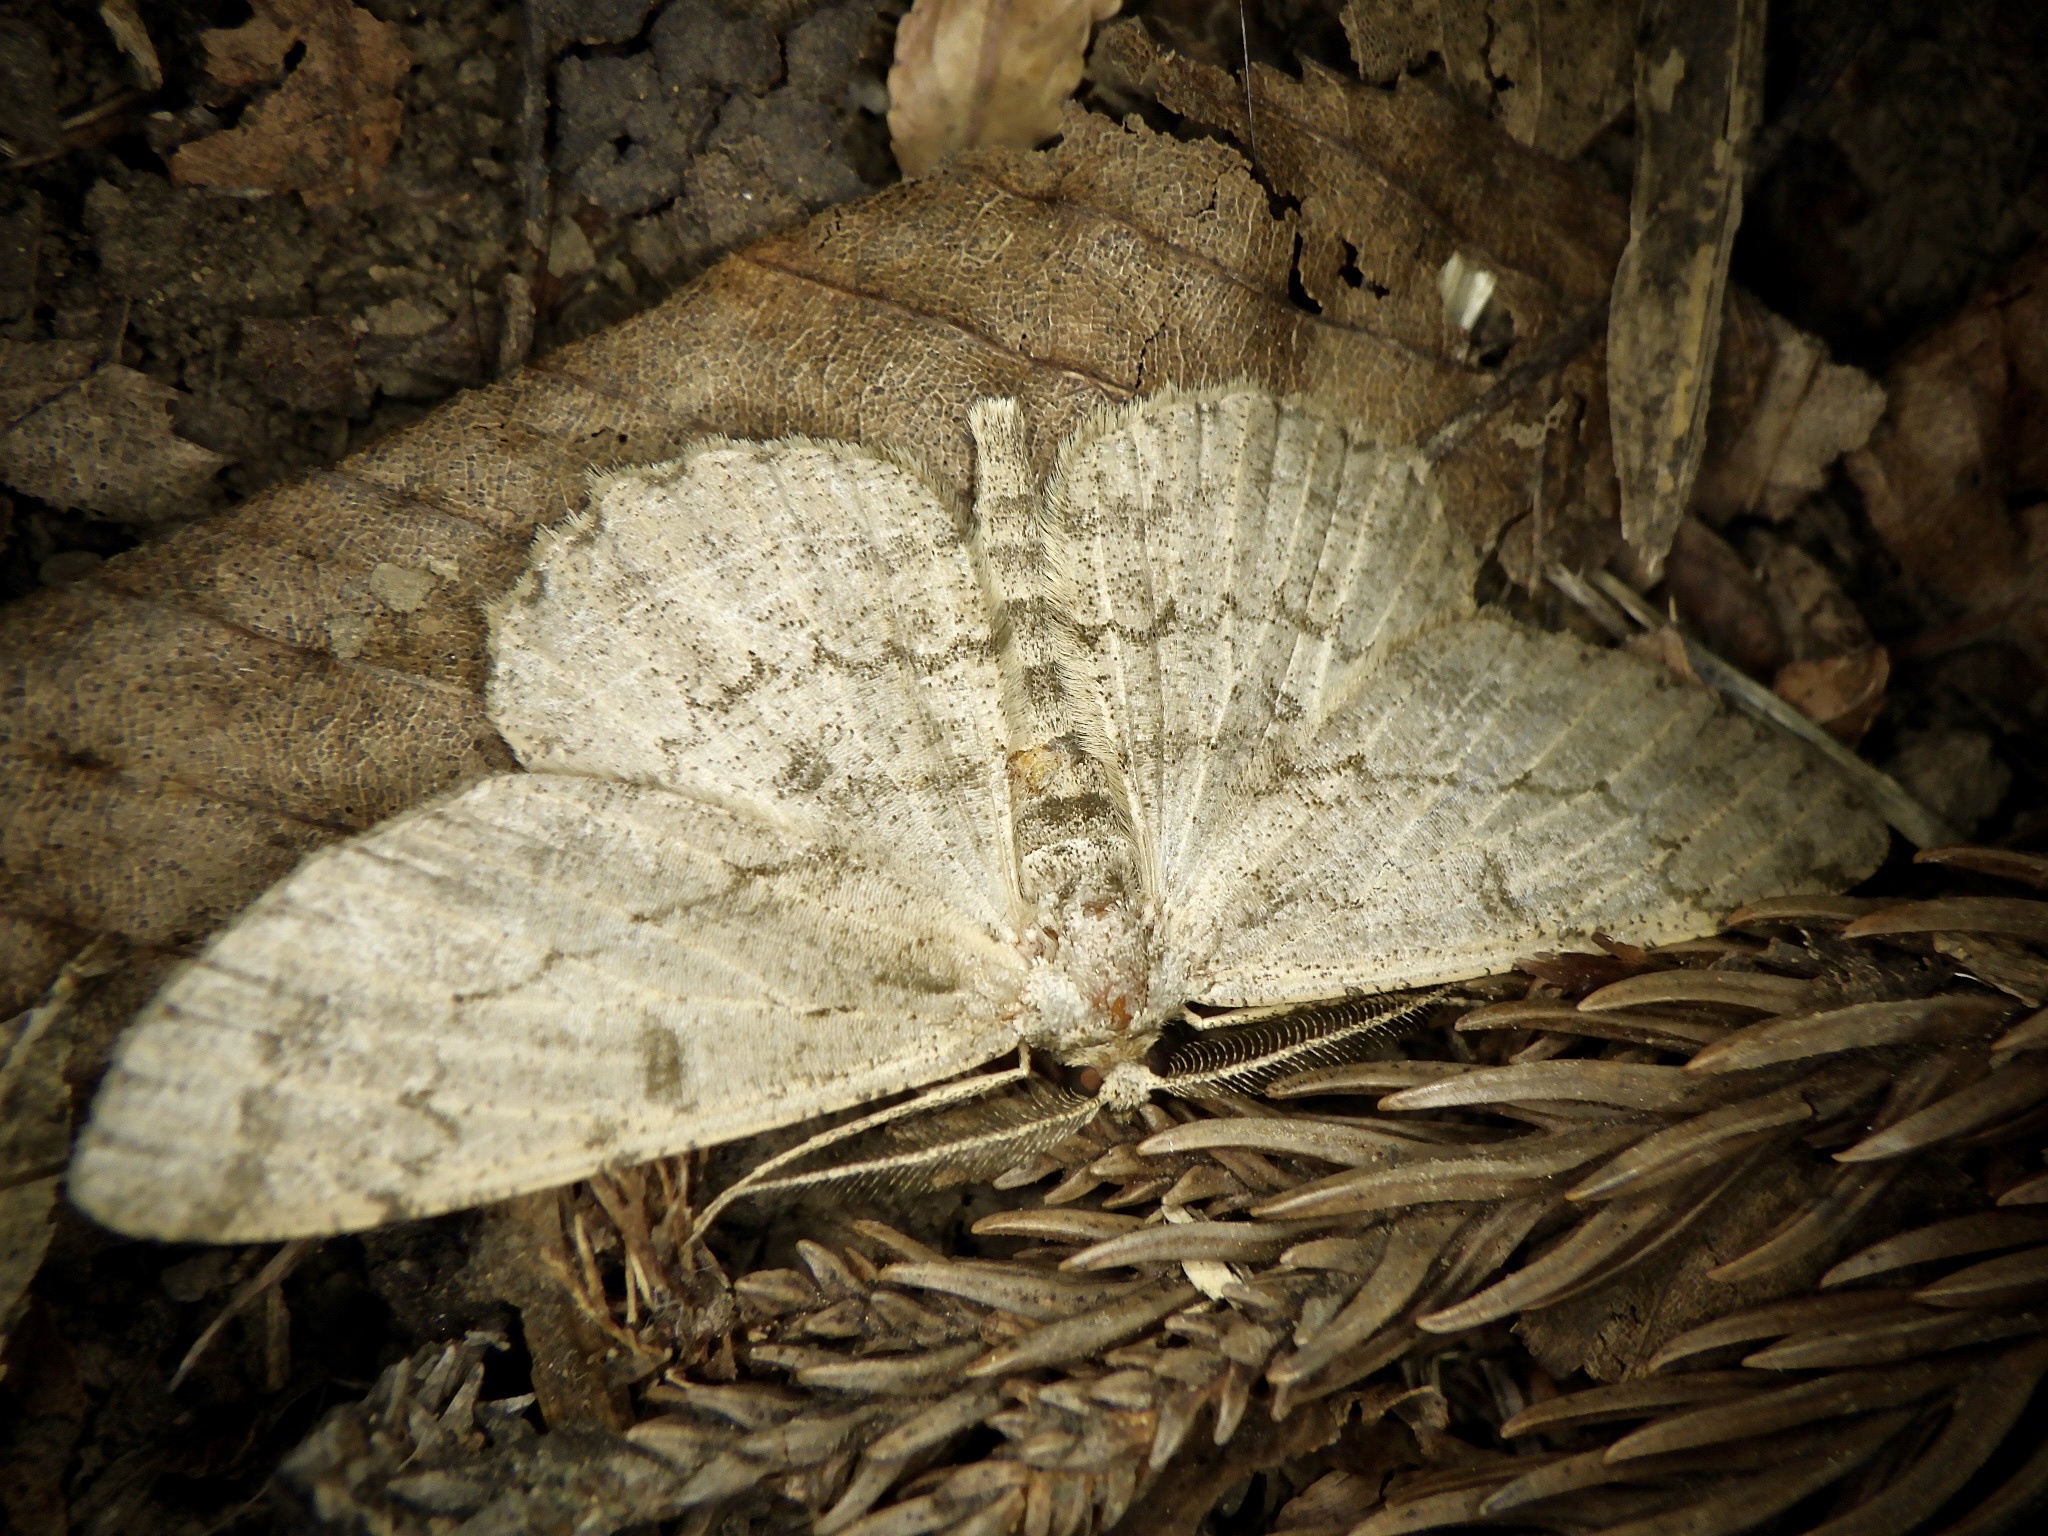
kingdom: Animalia
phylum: Arthropoda
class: Insecta
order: Lepidoptera
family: Geometridae
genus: Hypomecis
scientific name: Hypomecis punctinalis
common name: Pale oak beauty
